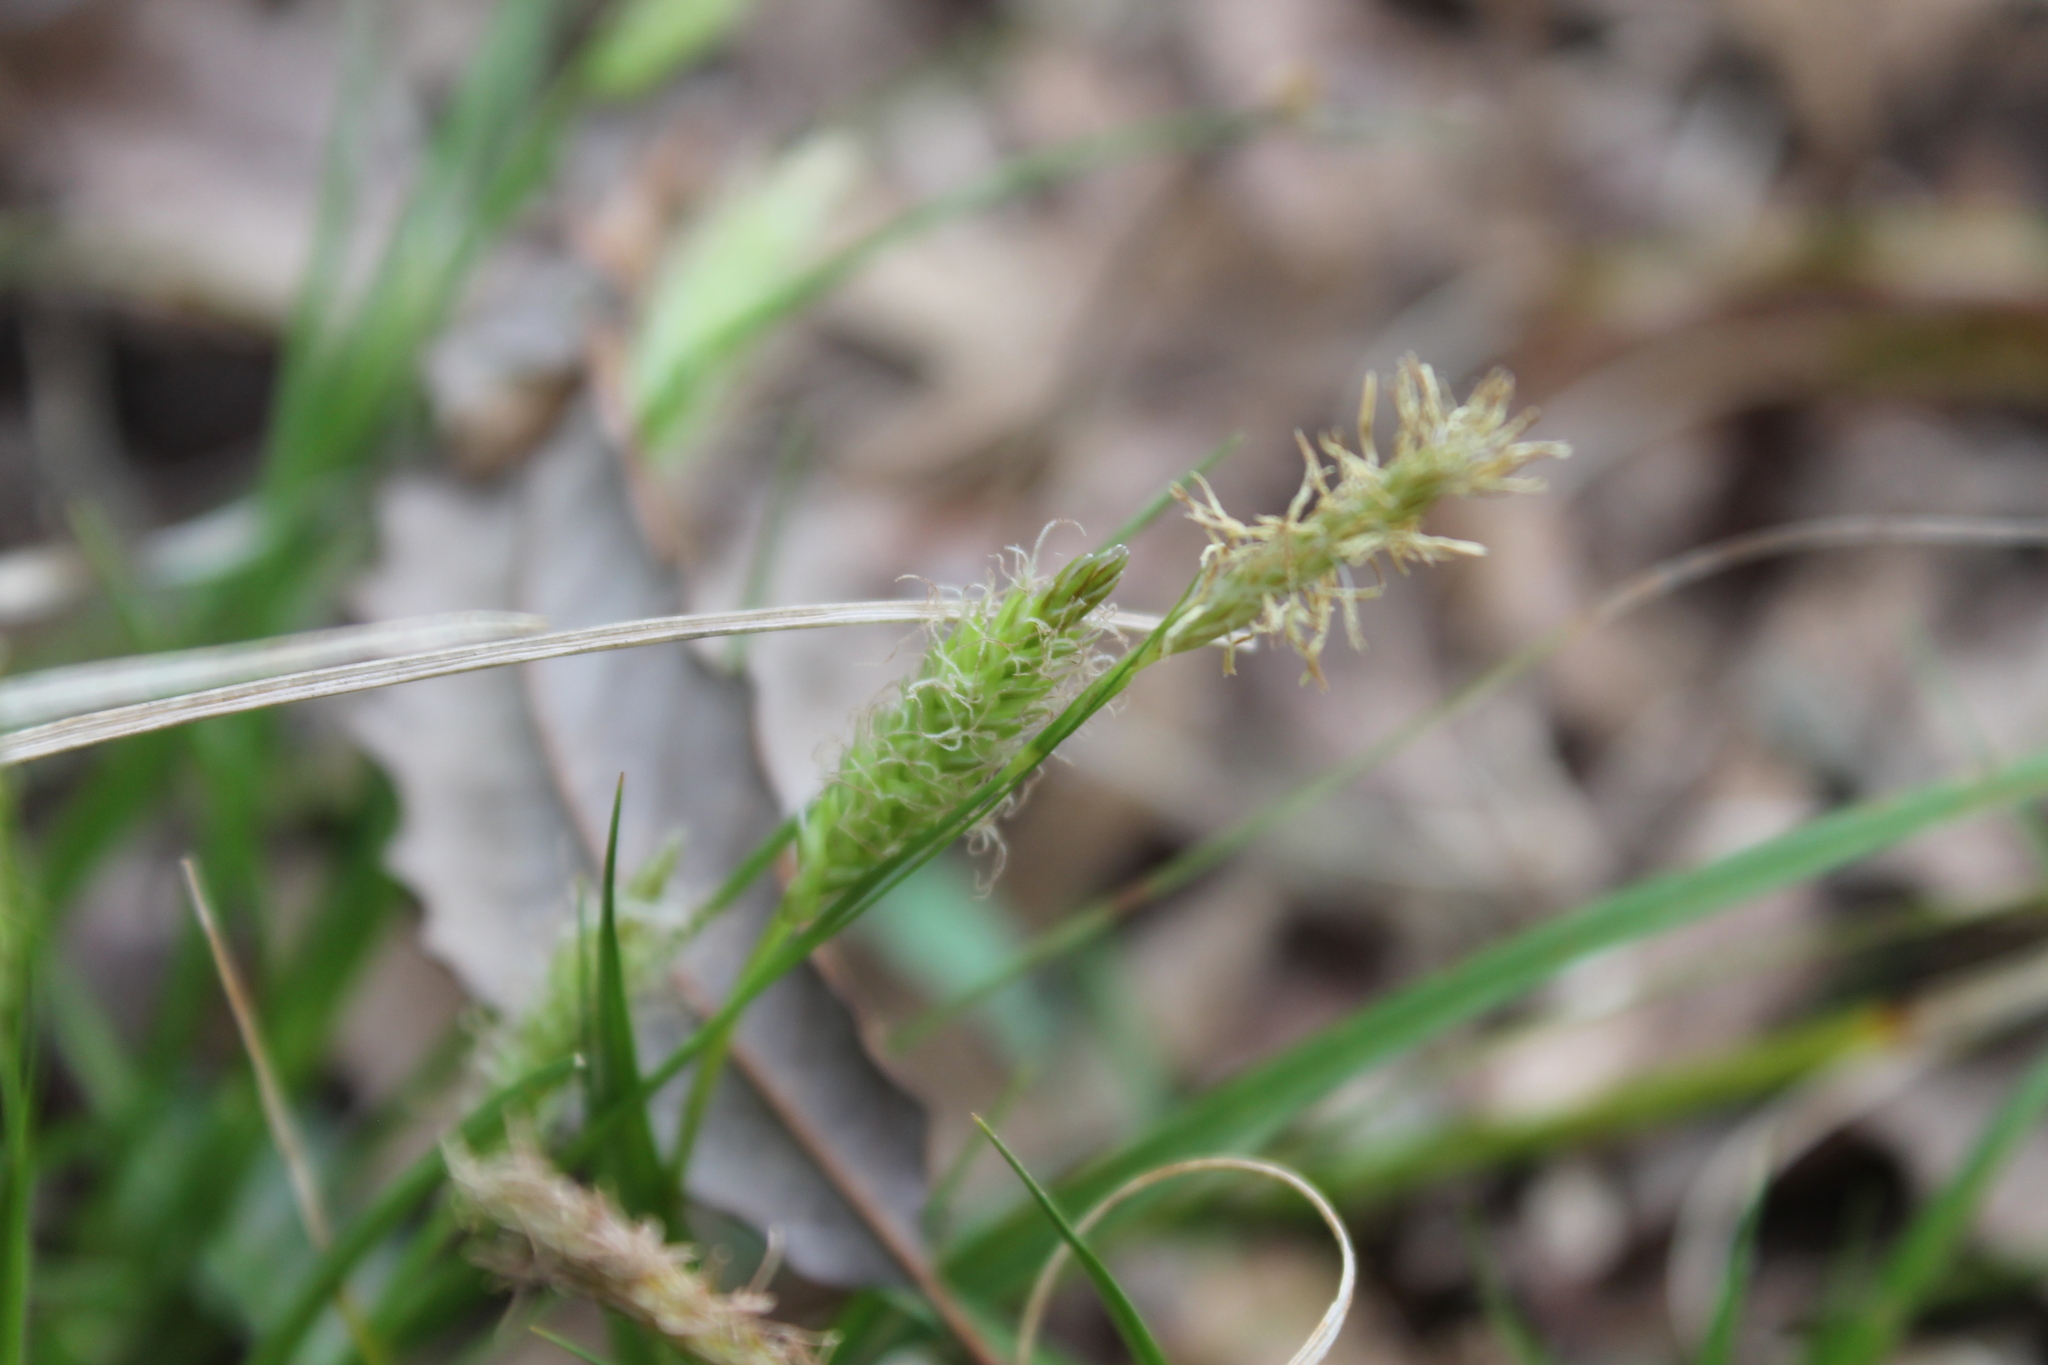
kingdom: Plantae
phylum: Tracheophyta
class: Liliopsida
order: Poales
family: Cyperaceae
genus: Carex
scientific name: Carex cherokeensis
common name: Cherokee sedge
